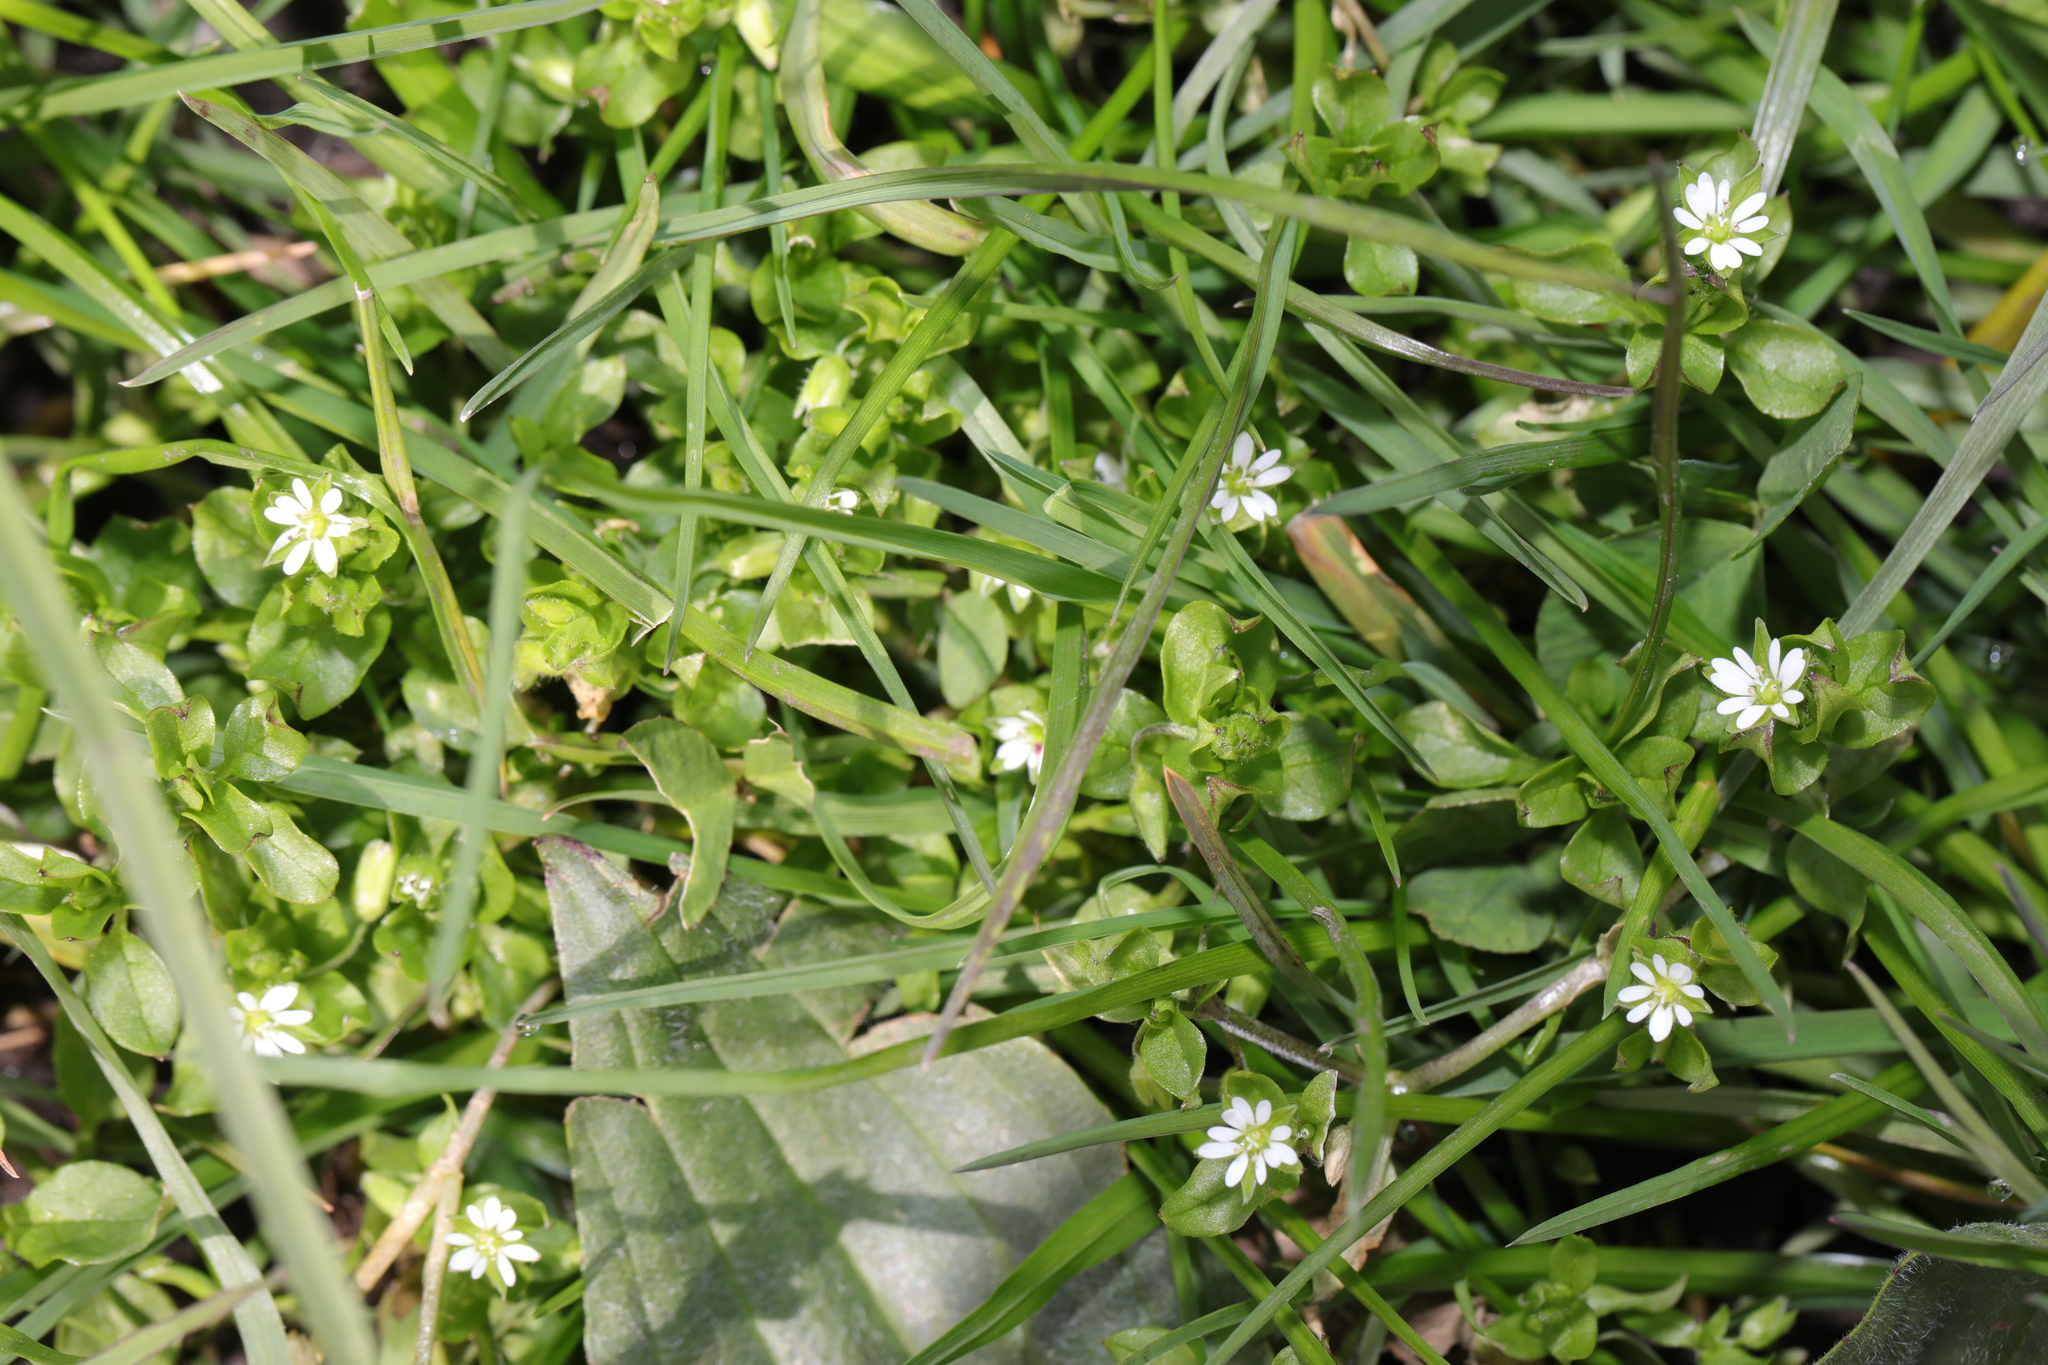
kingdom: Plantae
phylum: Tracheophyta
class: Magnoliopsida
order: Caryophyllales
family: Caryophyllaceae
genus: Stellaria
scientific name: Stellaria media
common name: Common chickweed
